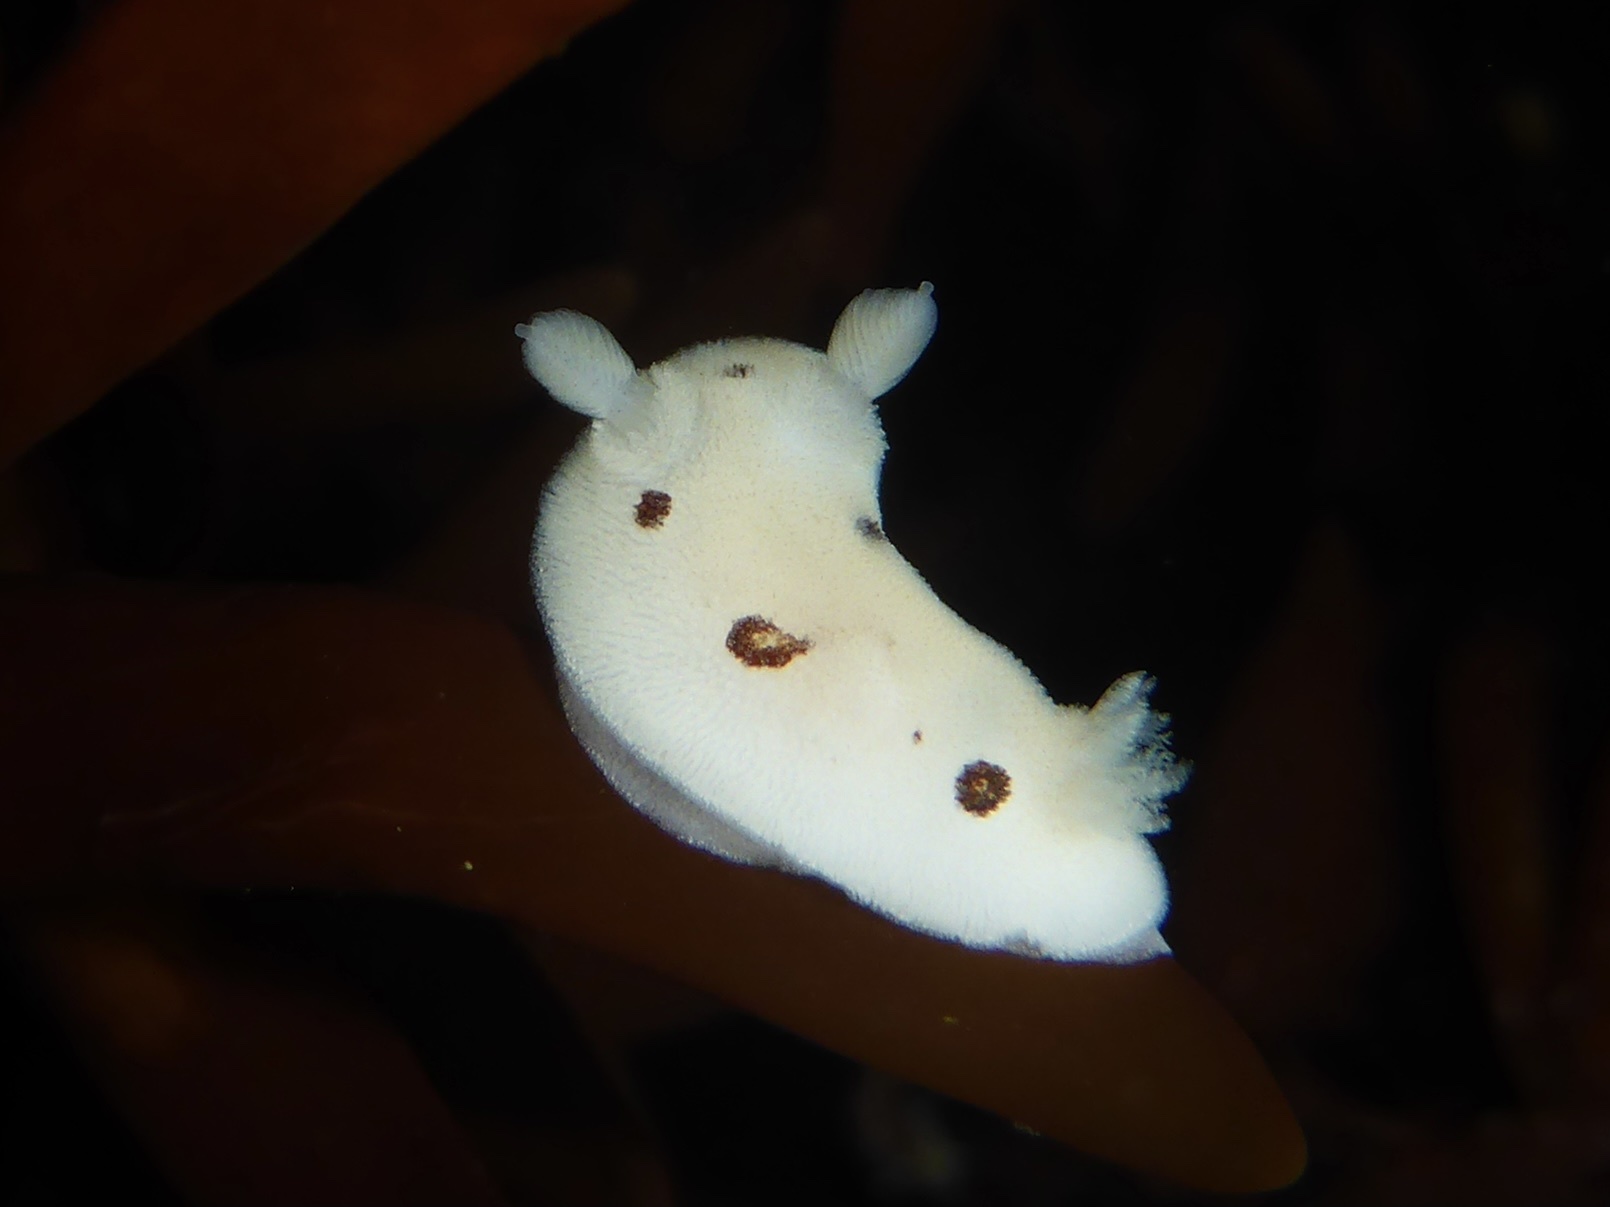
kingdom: Animalia
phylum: Mollusca
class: Gastropoda
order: Nudibranchia
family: Discodorididae
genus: Diaulula
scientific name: Diaulula sandiegensis
